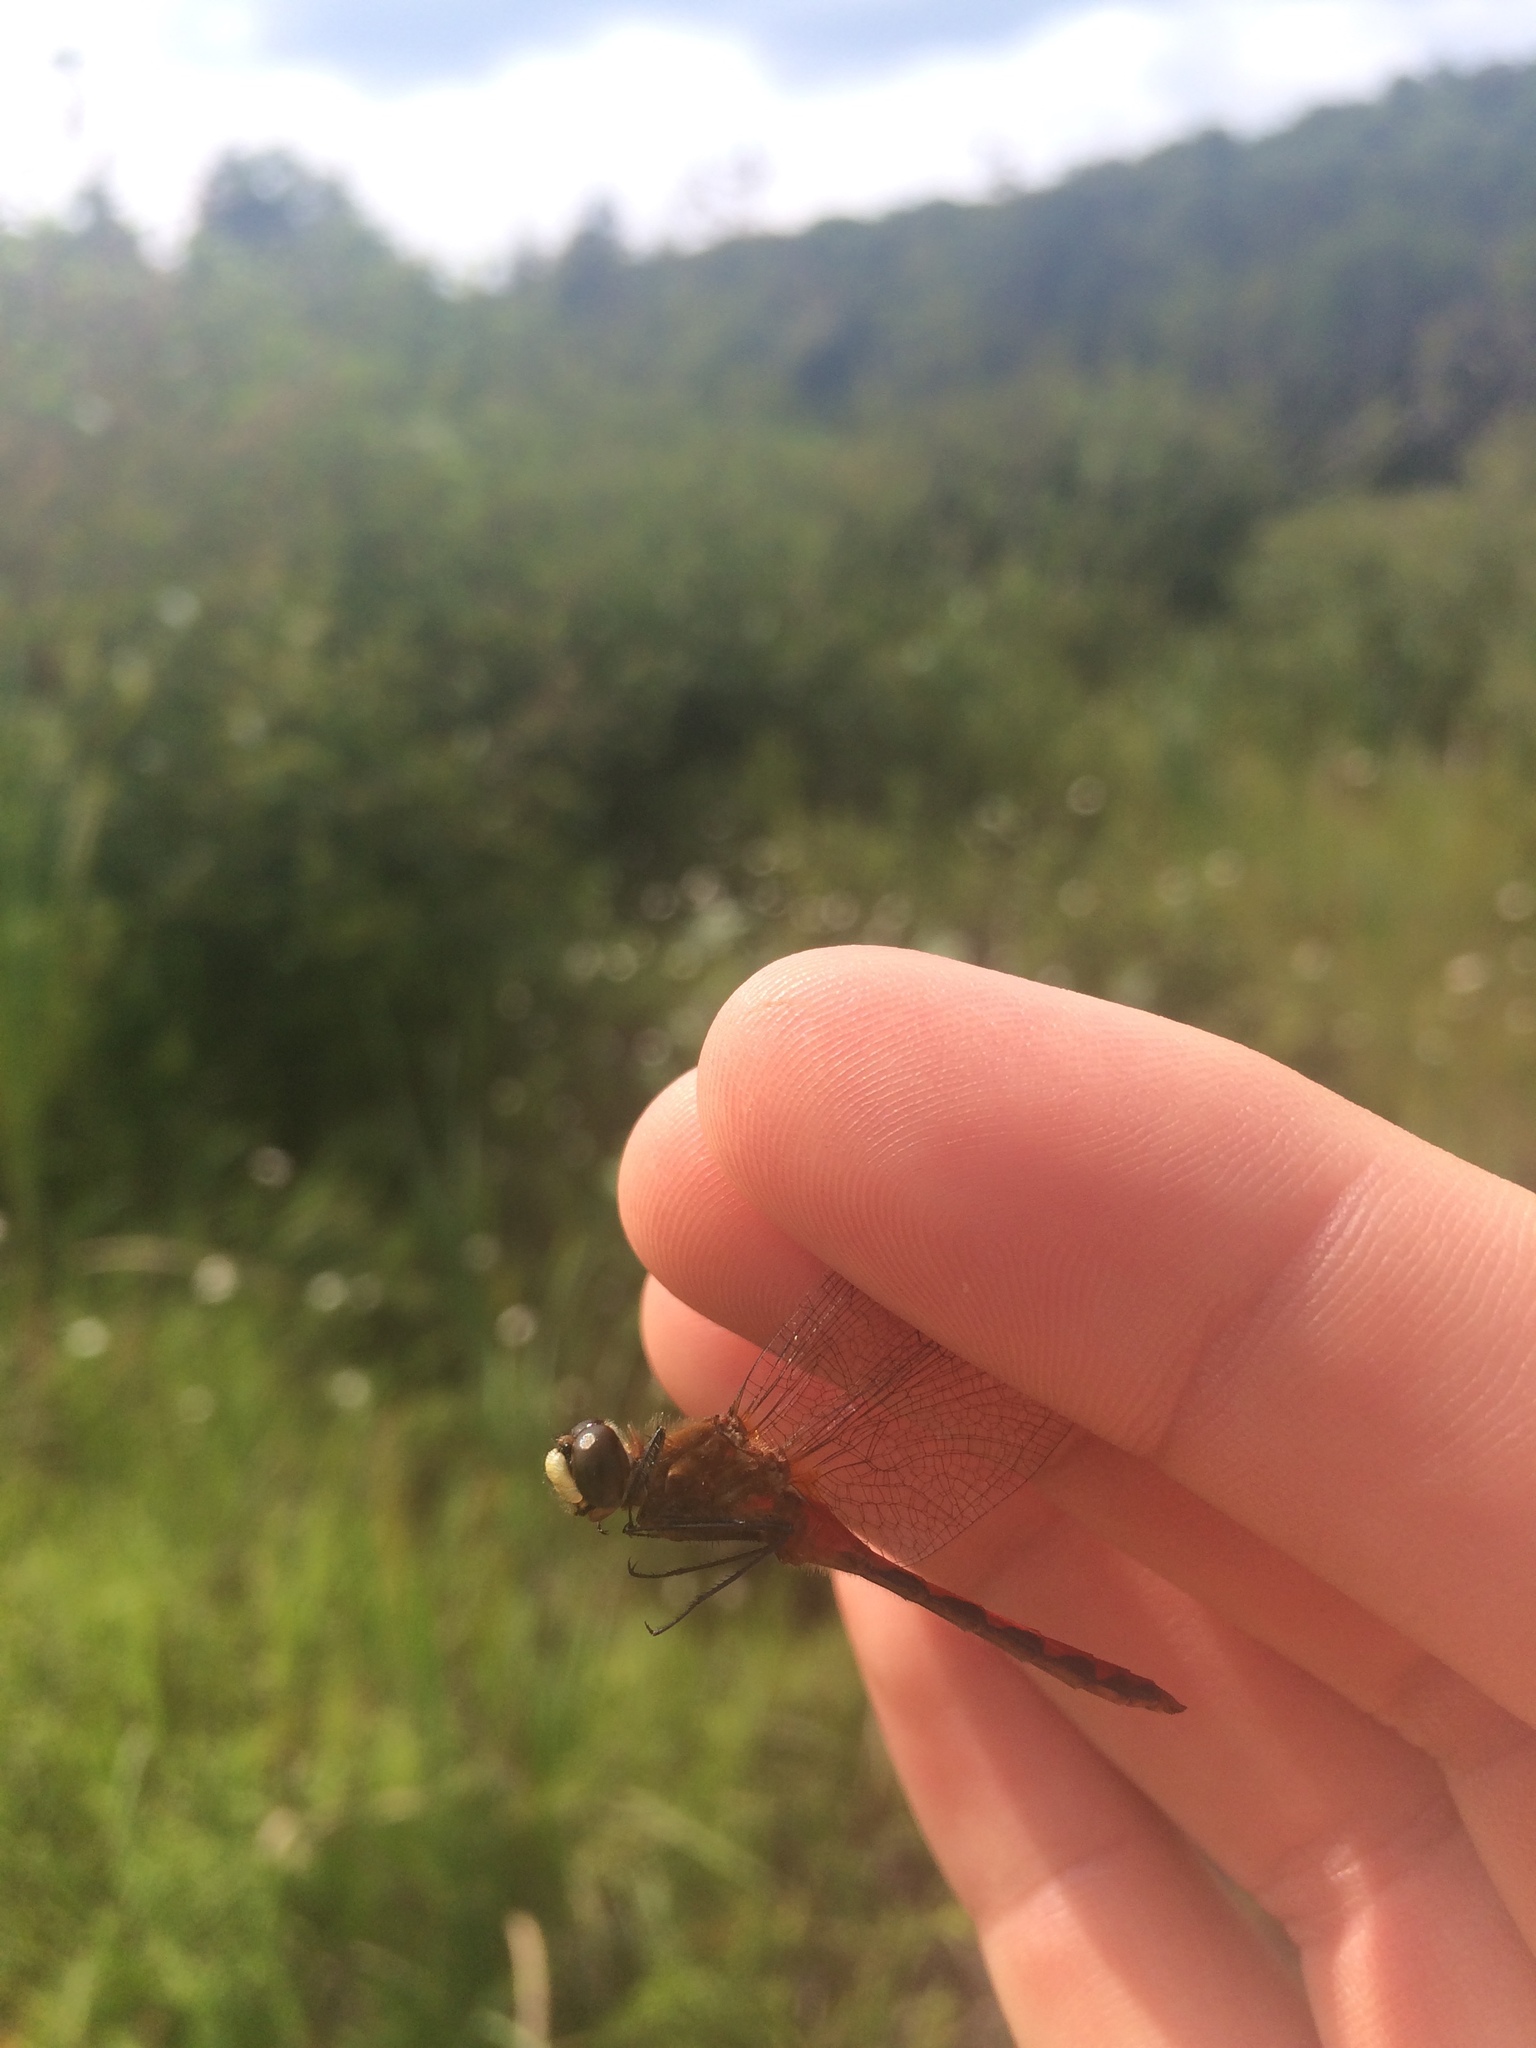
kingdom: Animalia
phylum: Arthropoda
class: Insecta
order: Odonata
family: Libellulidae
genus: Sympetrum
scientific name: Sympetrum obtrusum
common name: White-faced meadowhawk
